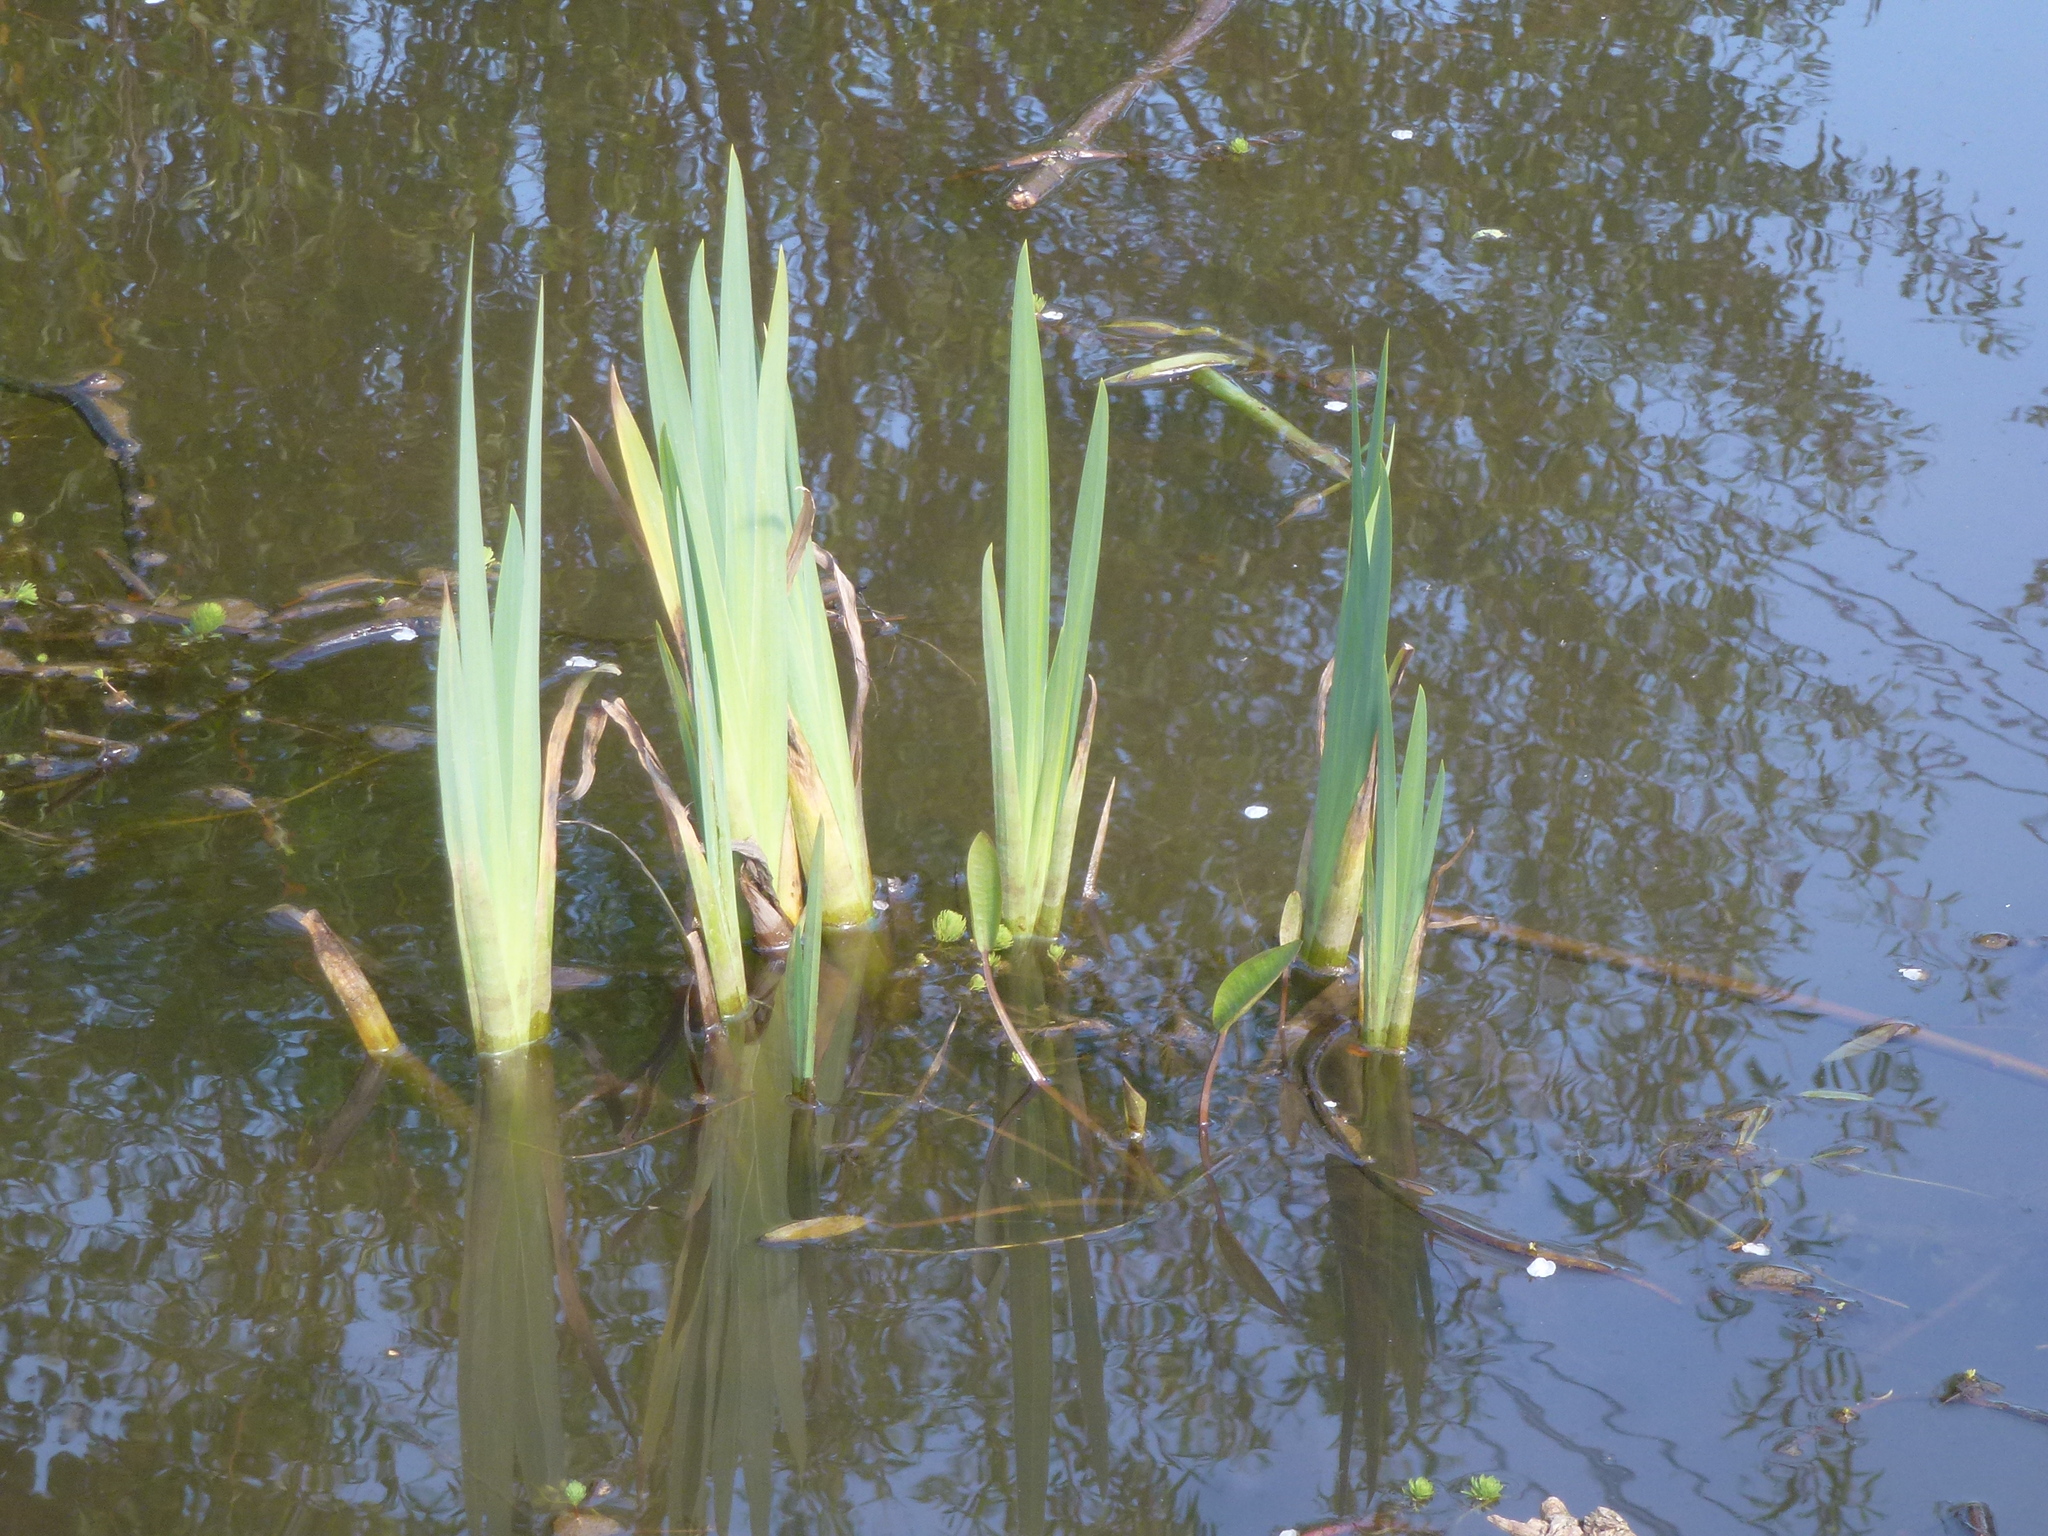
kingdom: Plantae
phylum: Tracheophyta
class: Liliopsida
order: Asparagales
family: Iridaceae
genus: Iris
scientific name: Iris pseudacorus
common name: Yellow flag
